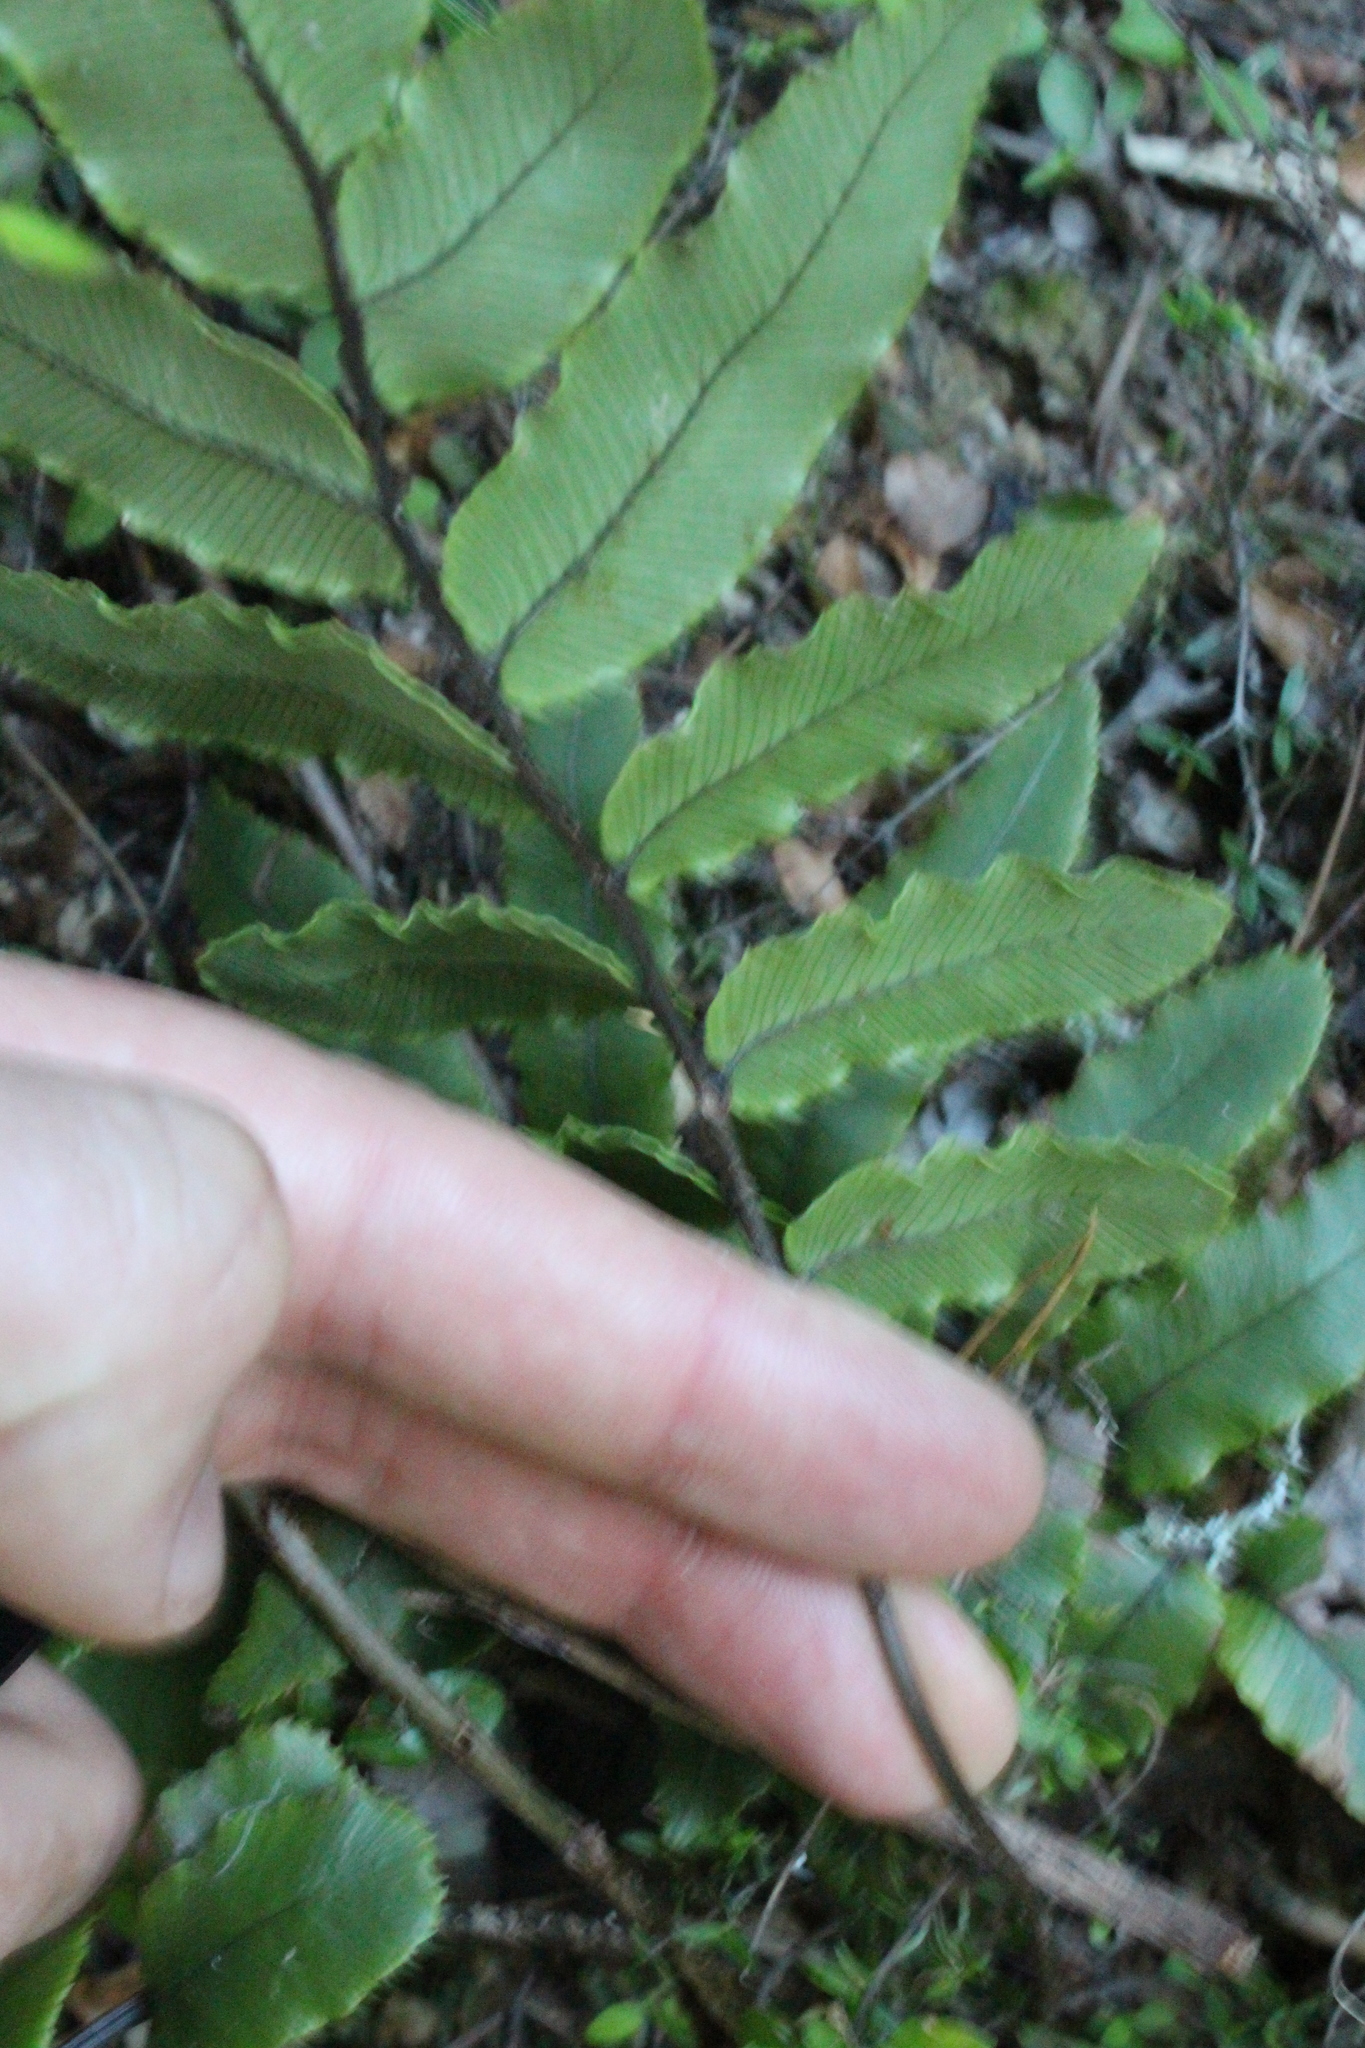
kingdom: Plantae
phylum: Tracheophyta
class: Polypodiopsida
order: Polypodiales
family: Blechnaceae
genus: Parablechnum
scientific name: Parablechnum procerum
